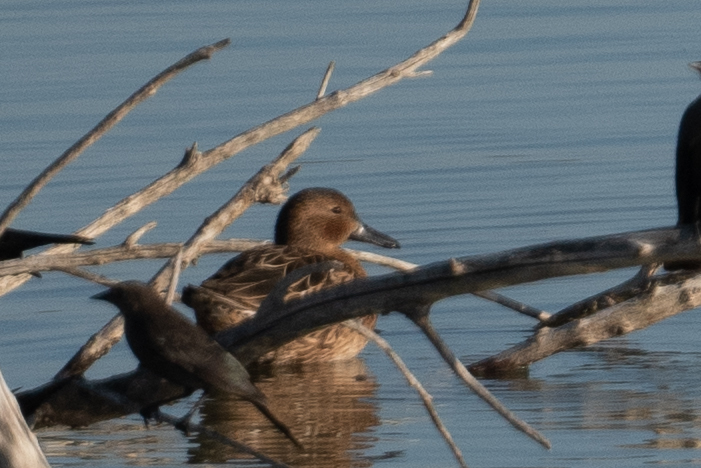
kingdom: Animalia
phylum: Chordata
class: Aves
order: Anseriformes
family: Anatidae
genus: Spatula
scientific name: Spatula cyanoptera
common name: Cinnamon teal
